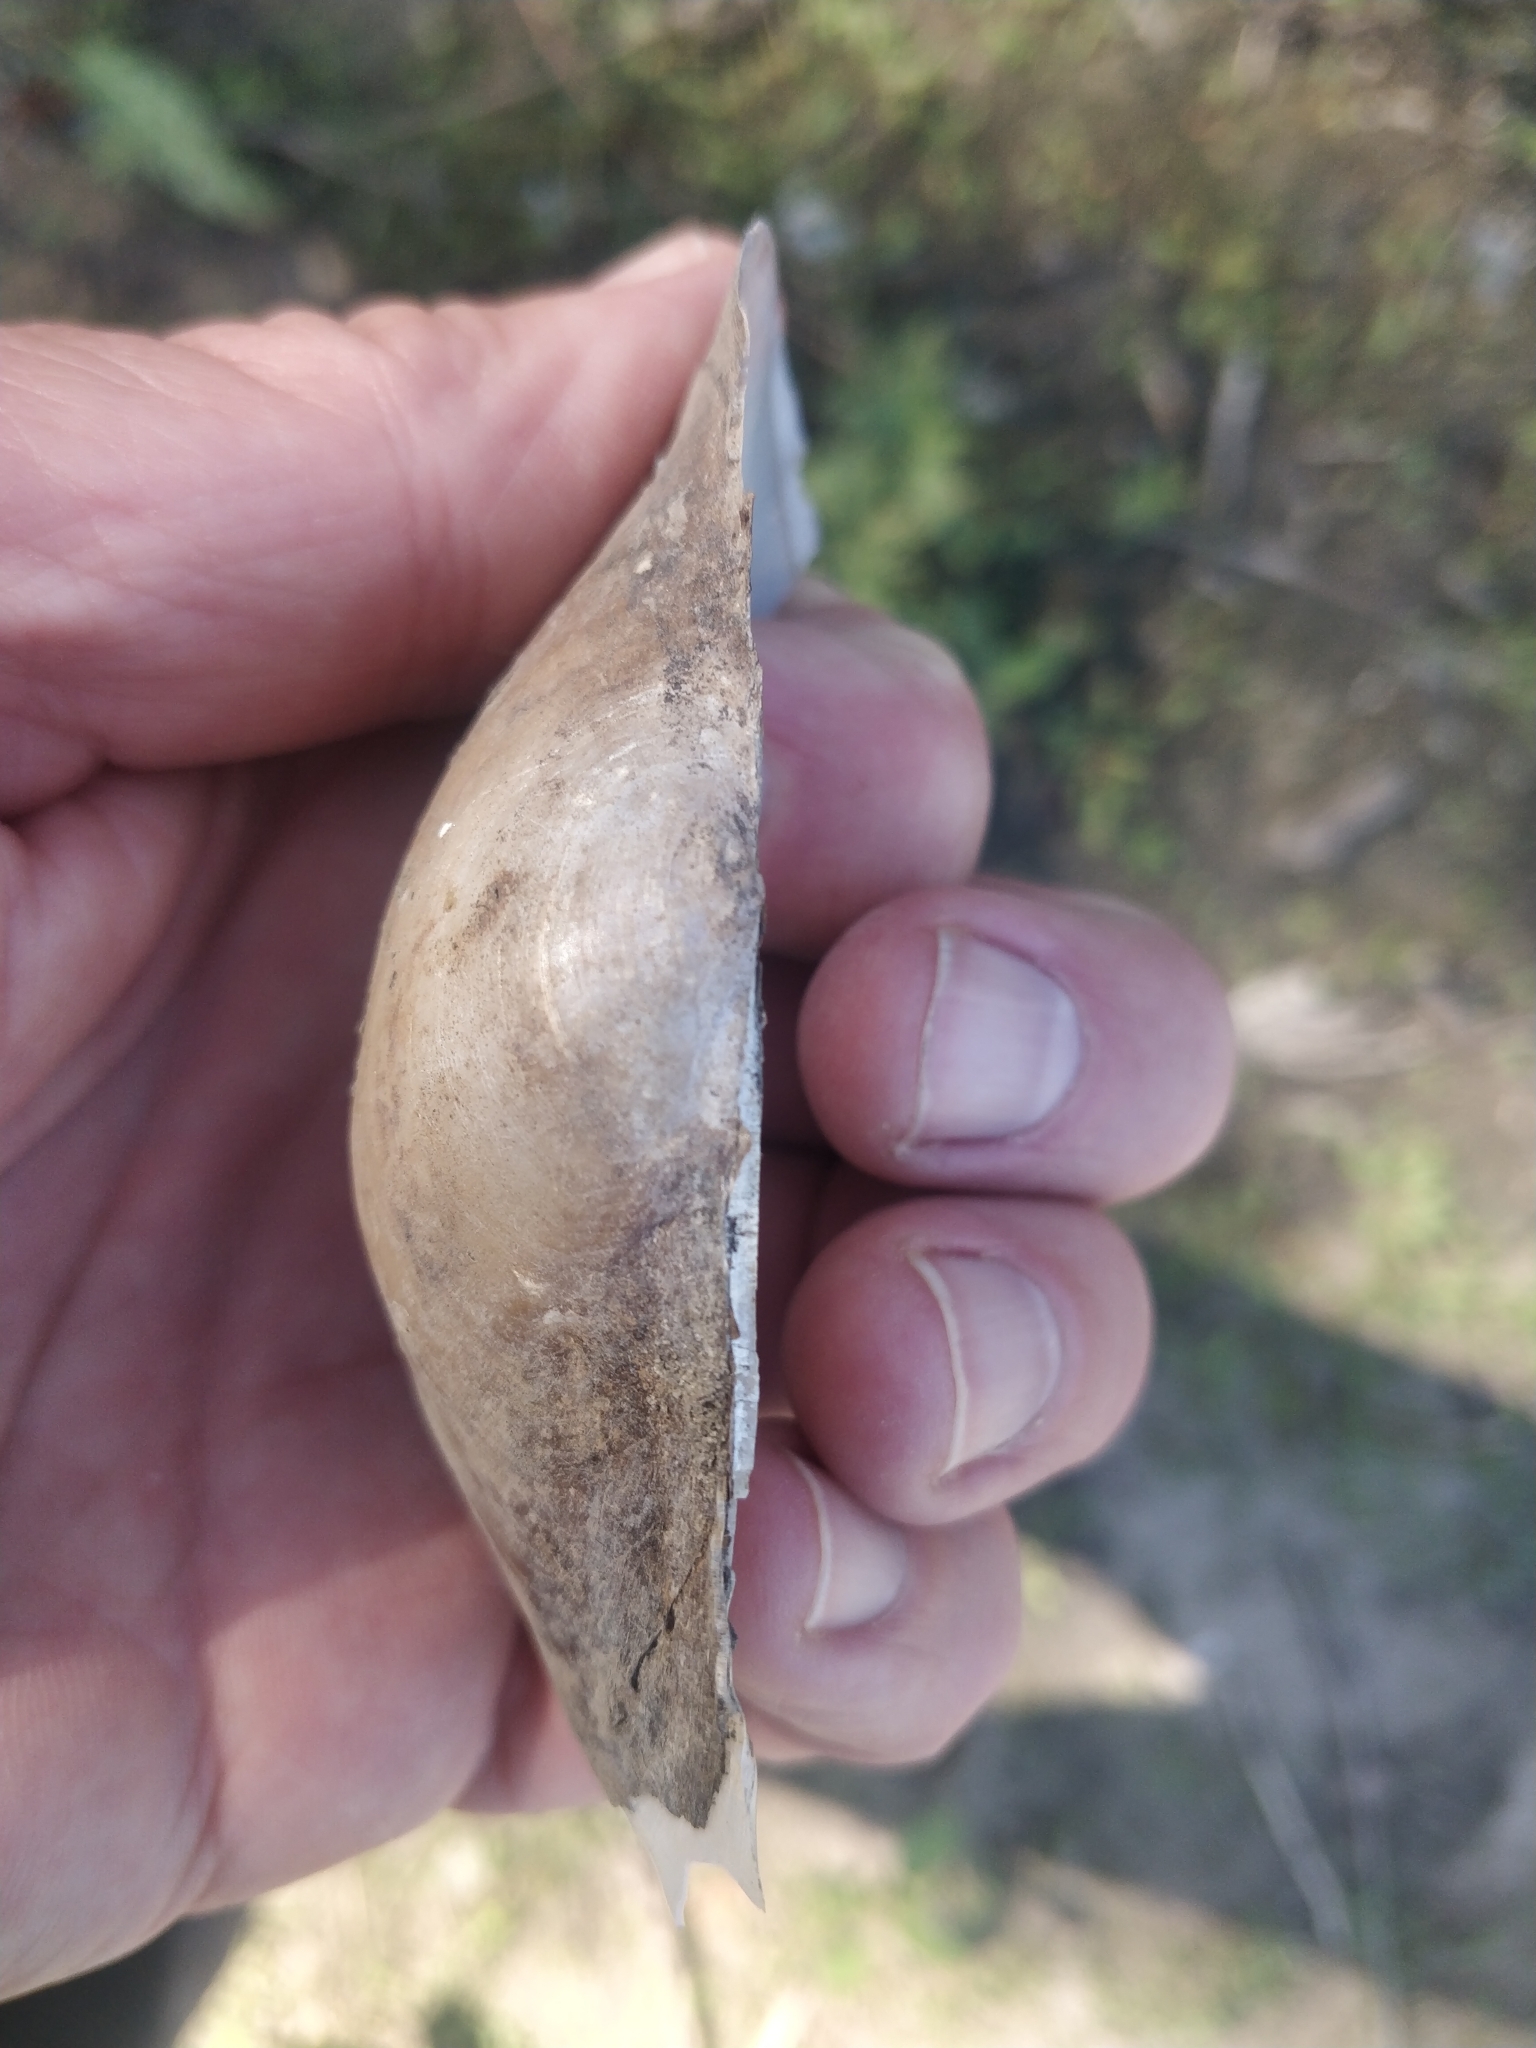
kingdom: Animalia
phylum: Mollusca
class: Bivalvia
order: Unionida
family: Unionidae
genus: Pyganodon
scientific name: Pyganodon grandis
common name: Giant floater
